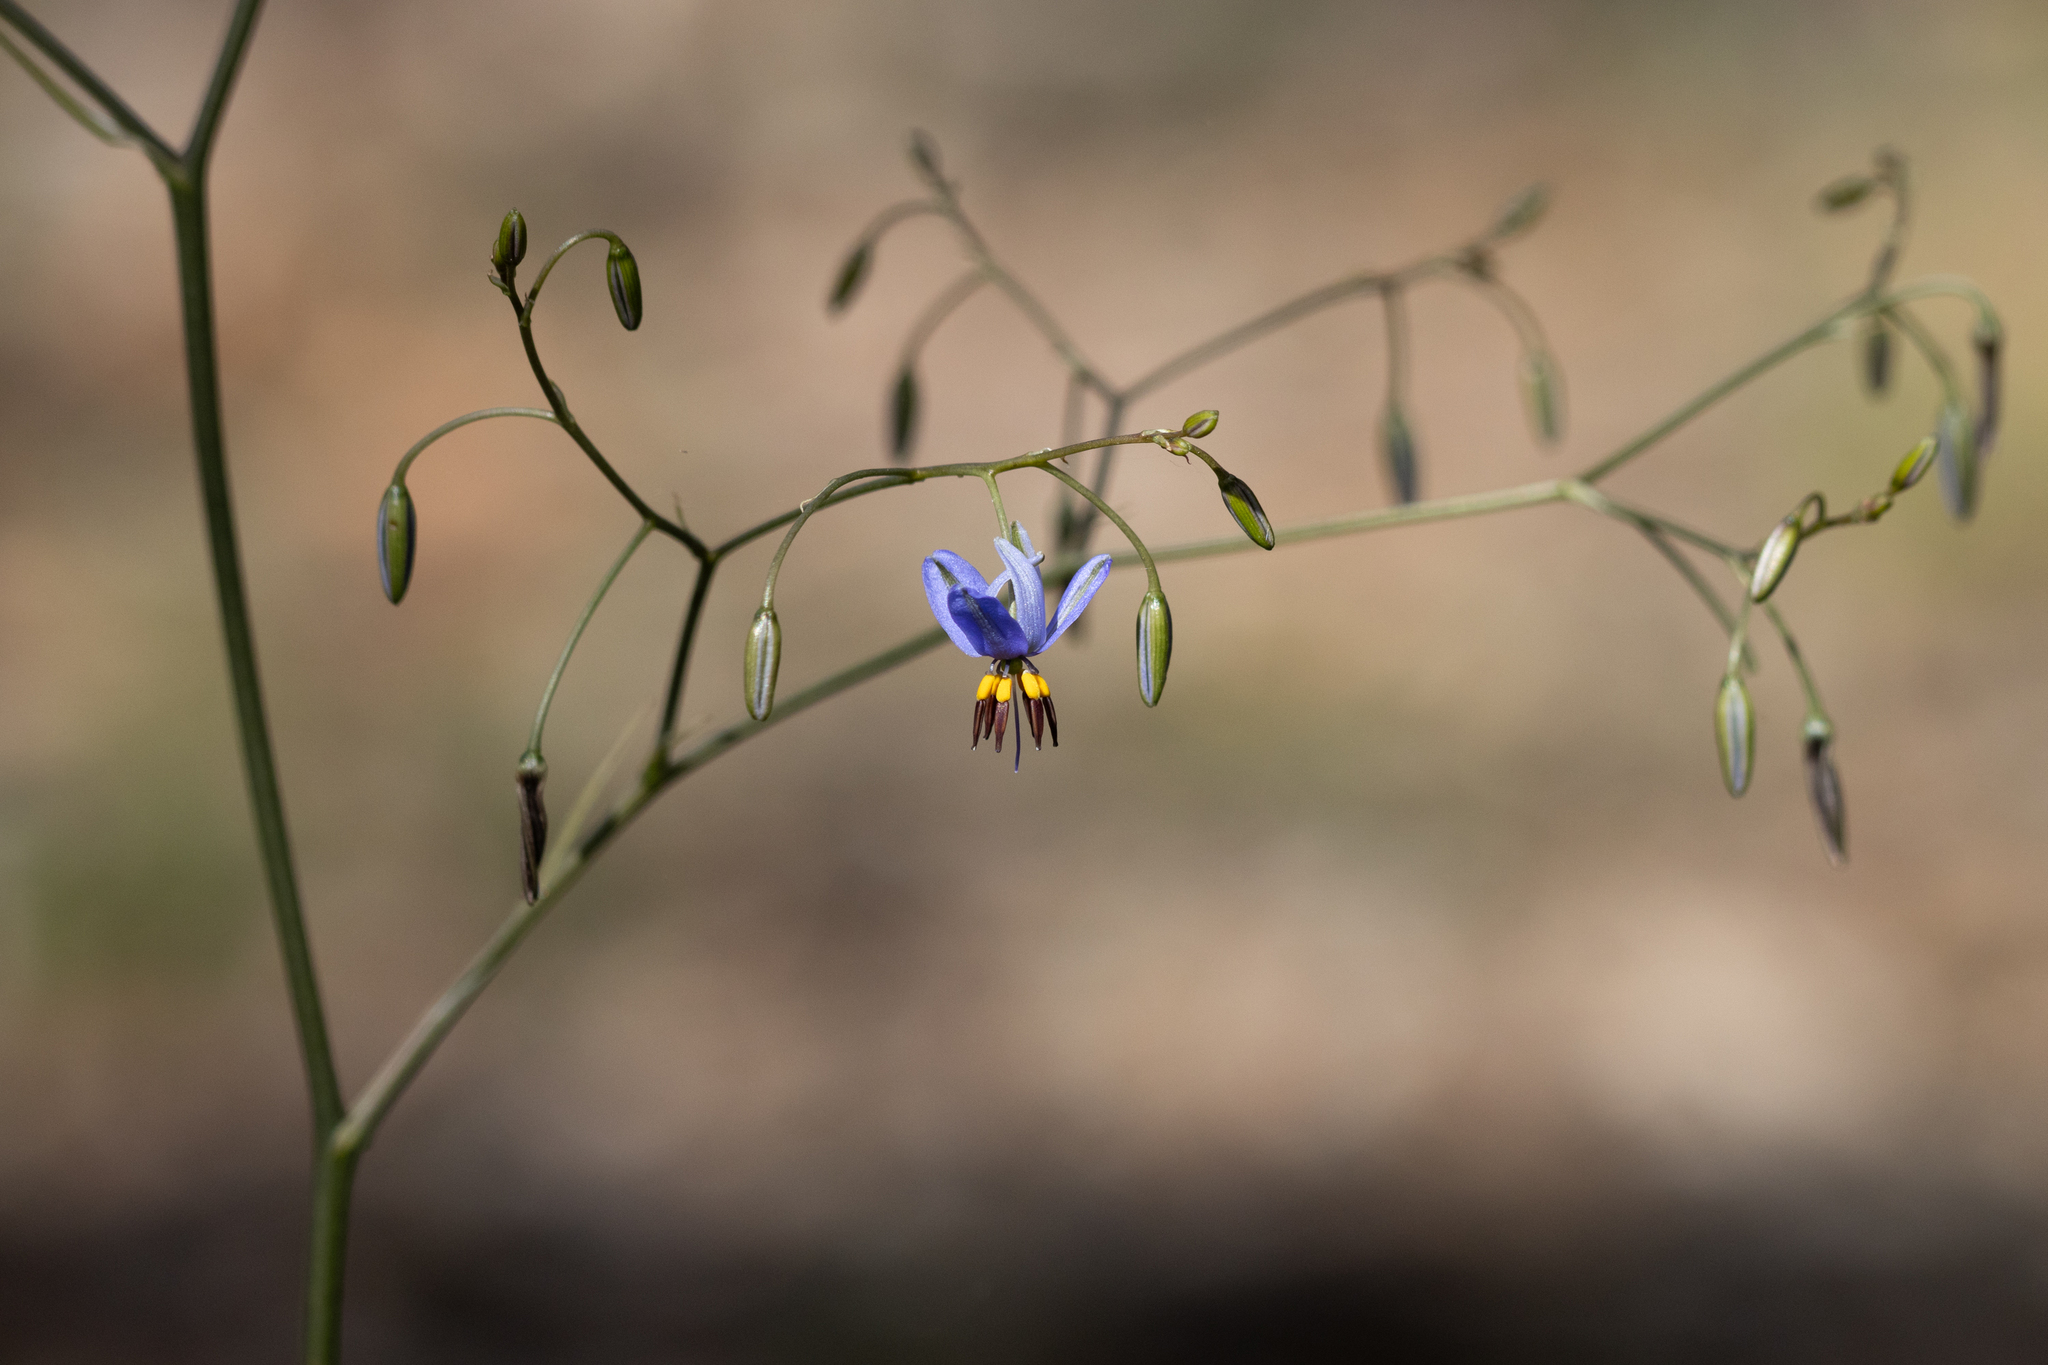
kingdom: Plantae
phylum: Tracheophyta
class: Liliopsida
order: Asparagales
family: Asphodelaceae
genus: Dianella
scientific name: Dianella revoluta
